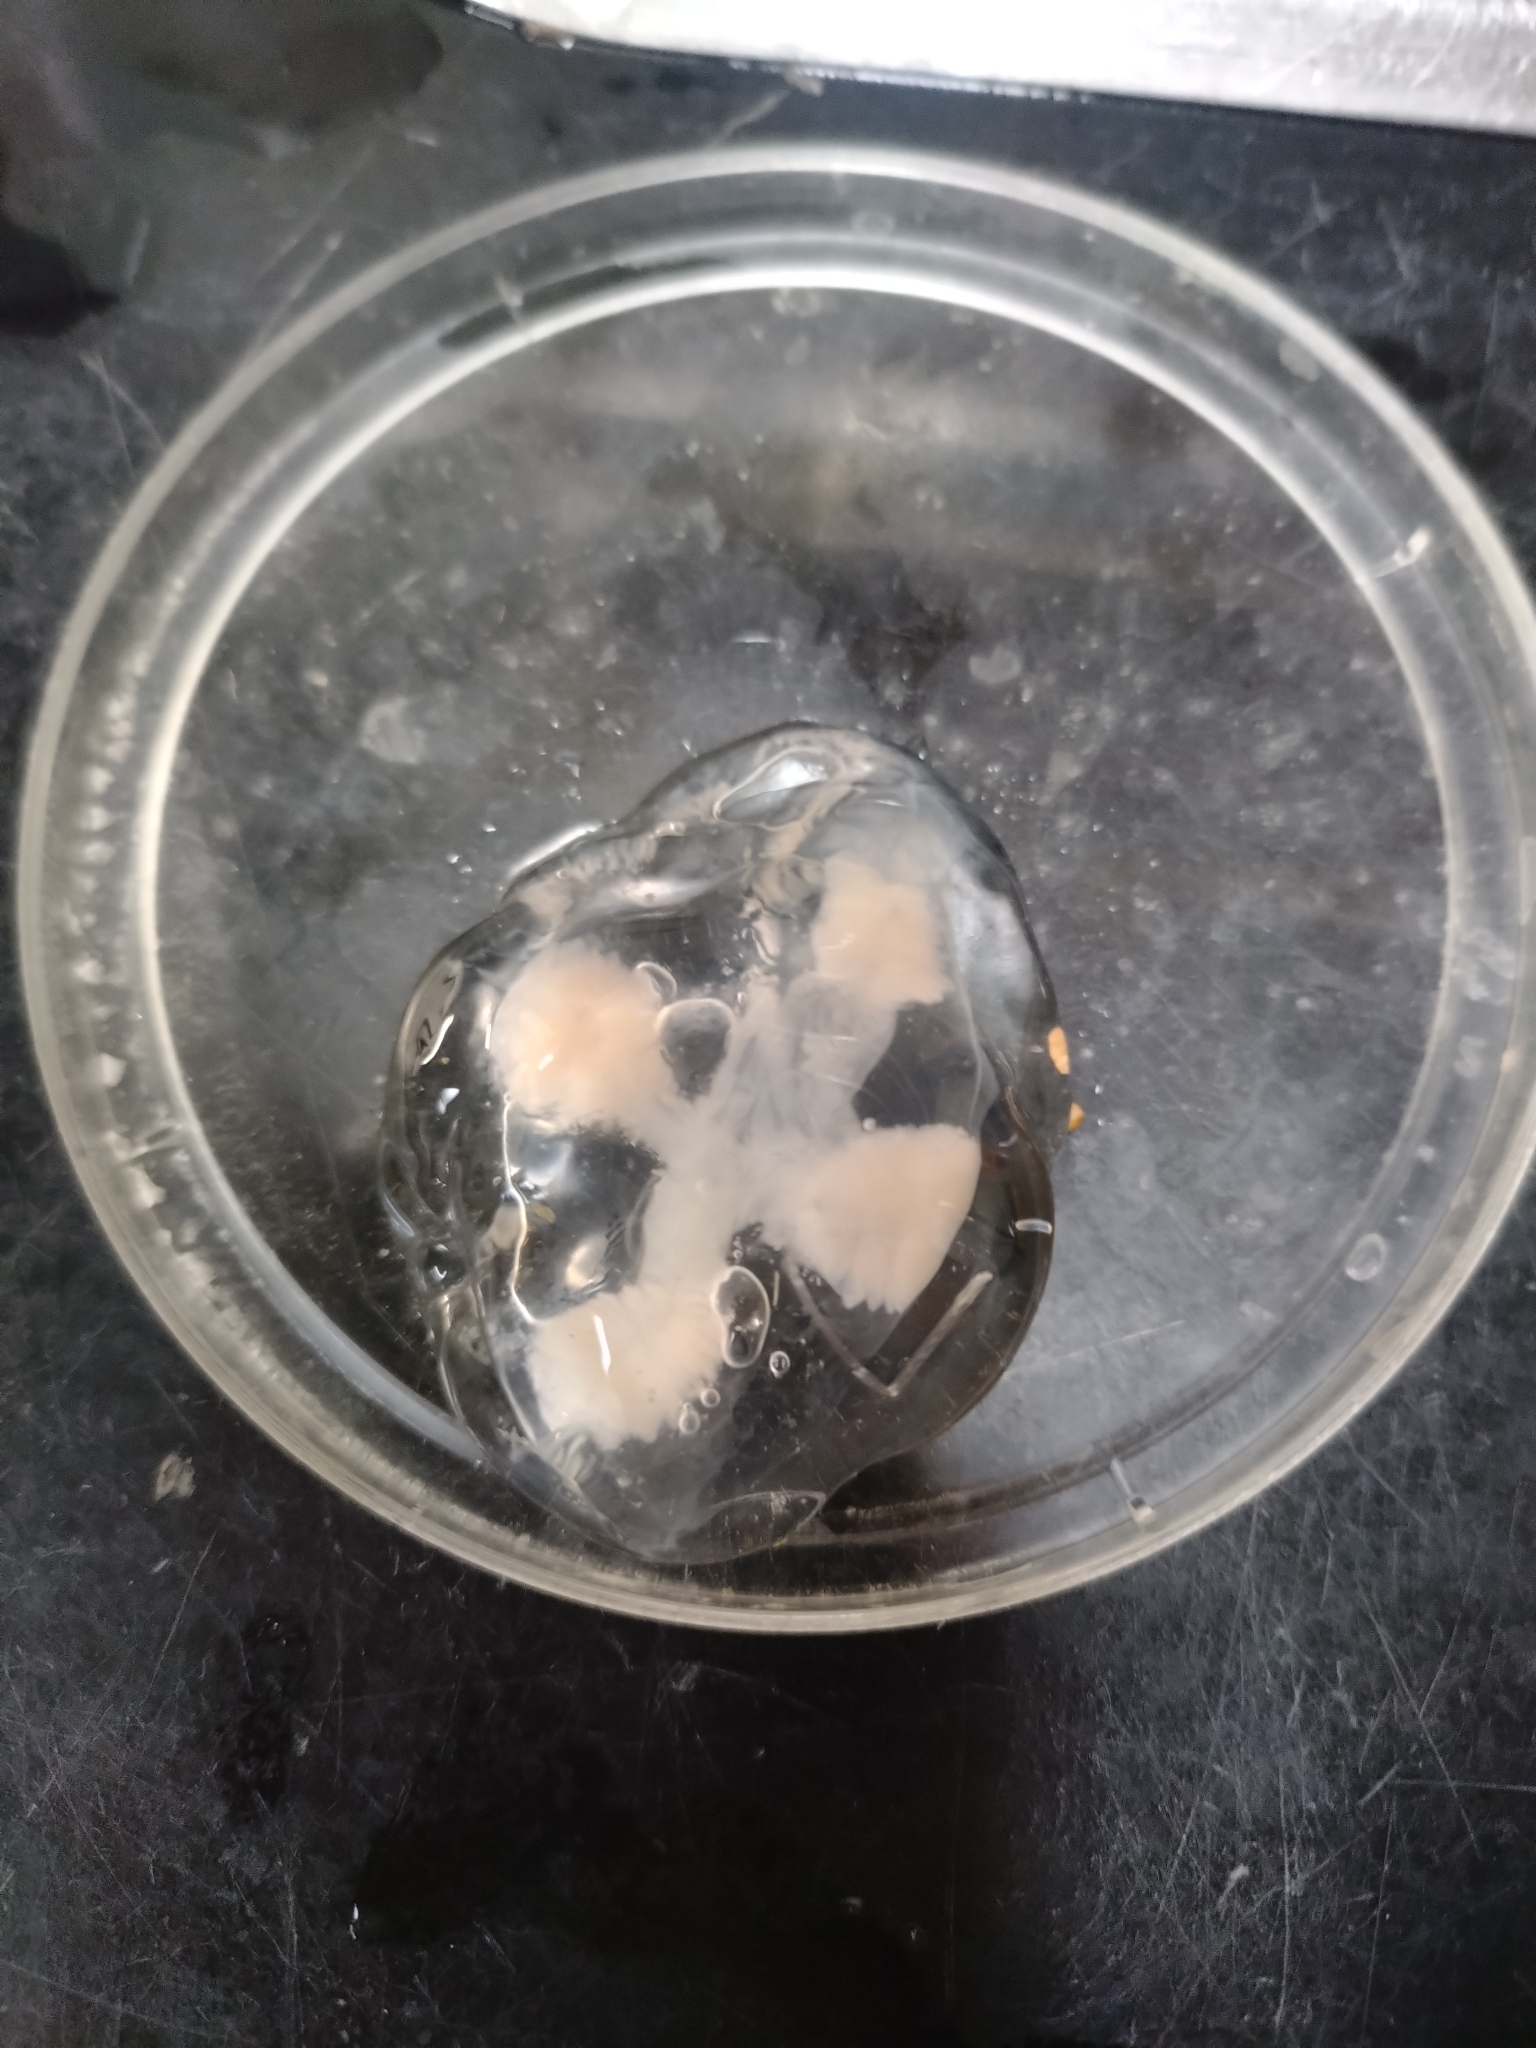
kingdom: Animalia
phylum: Cnidaria
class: Hydrozoa
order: Leptothecata
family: Laodiceidae
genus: Ptychogena
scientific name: Ptychogena lactea
